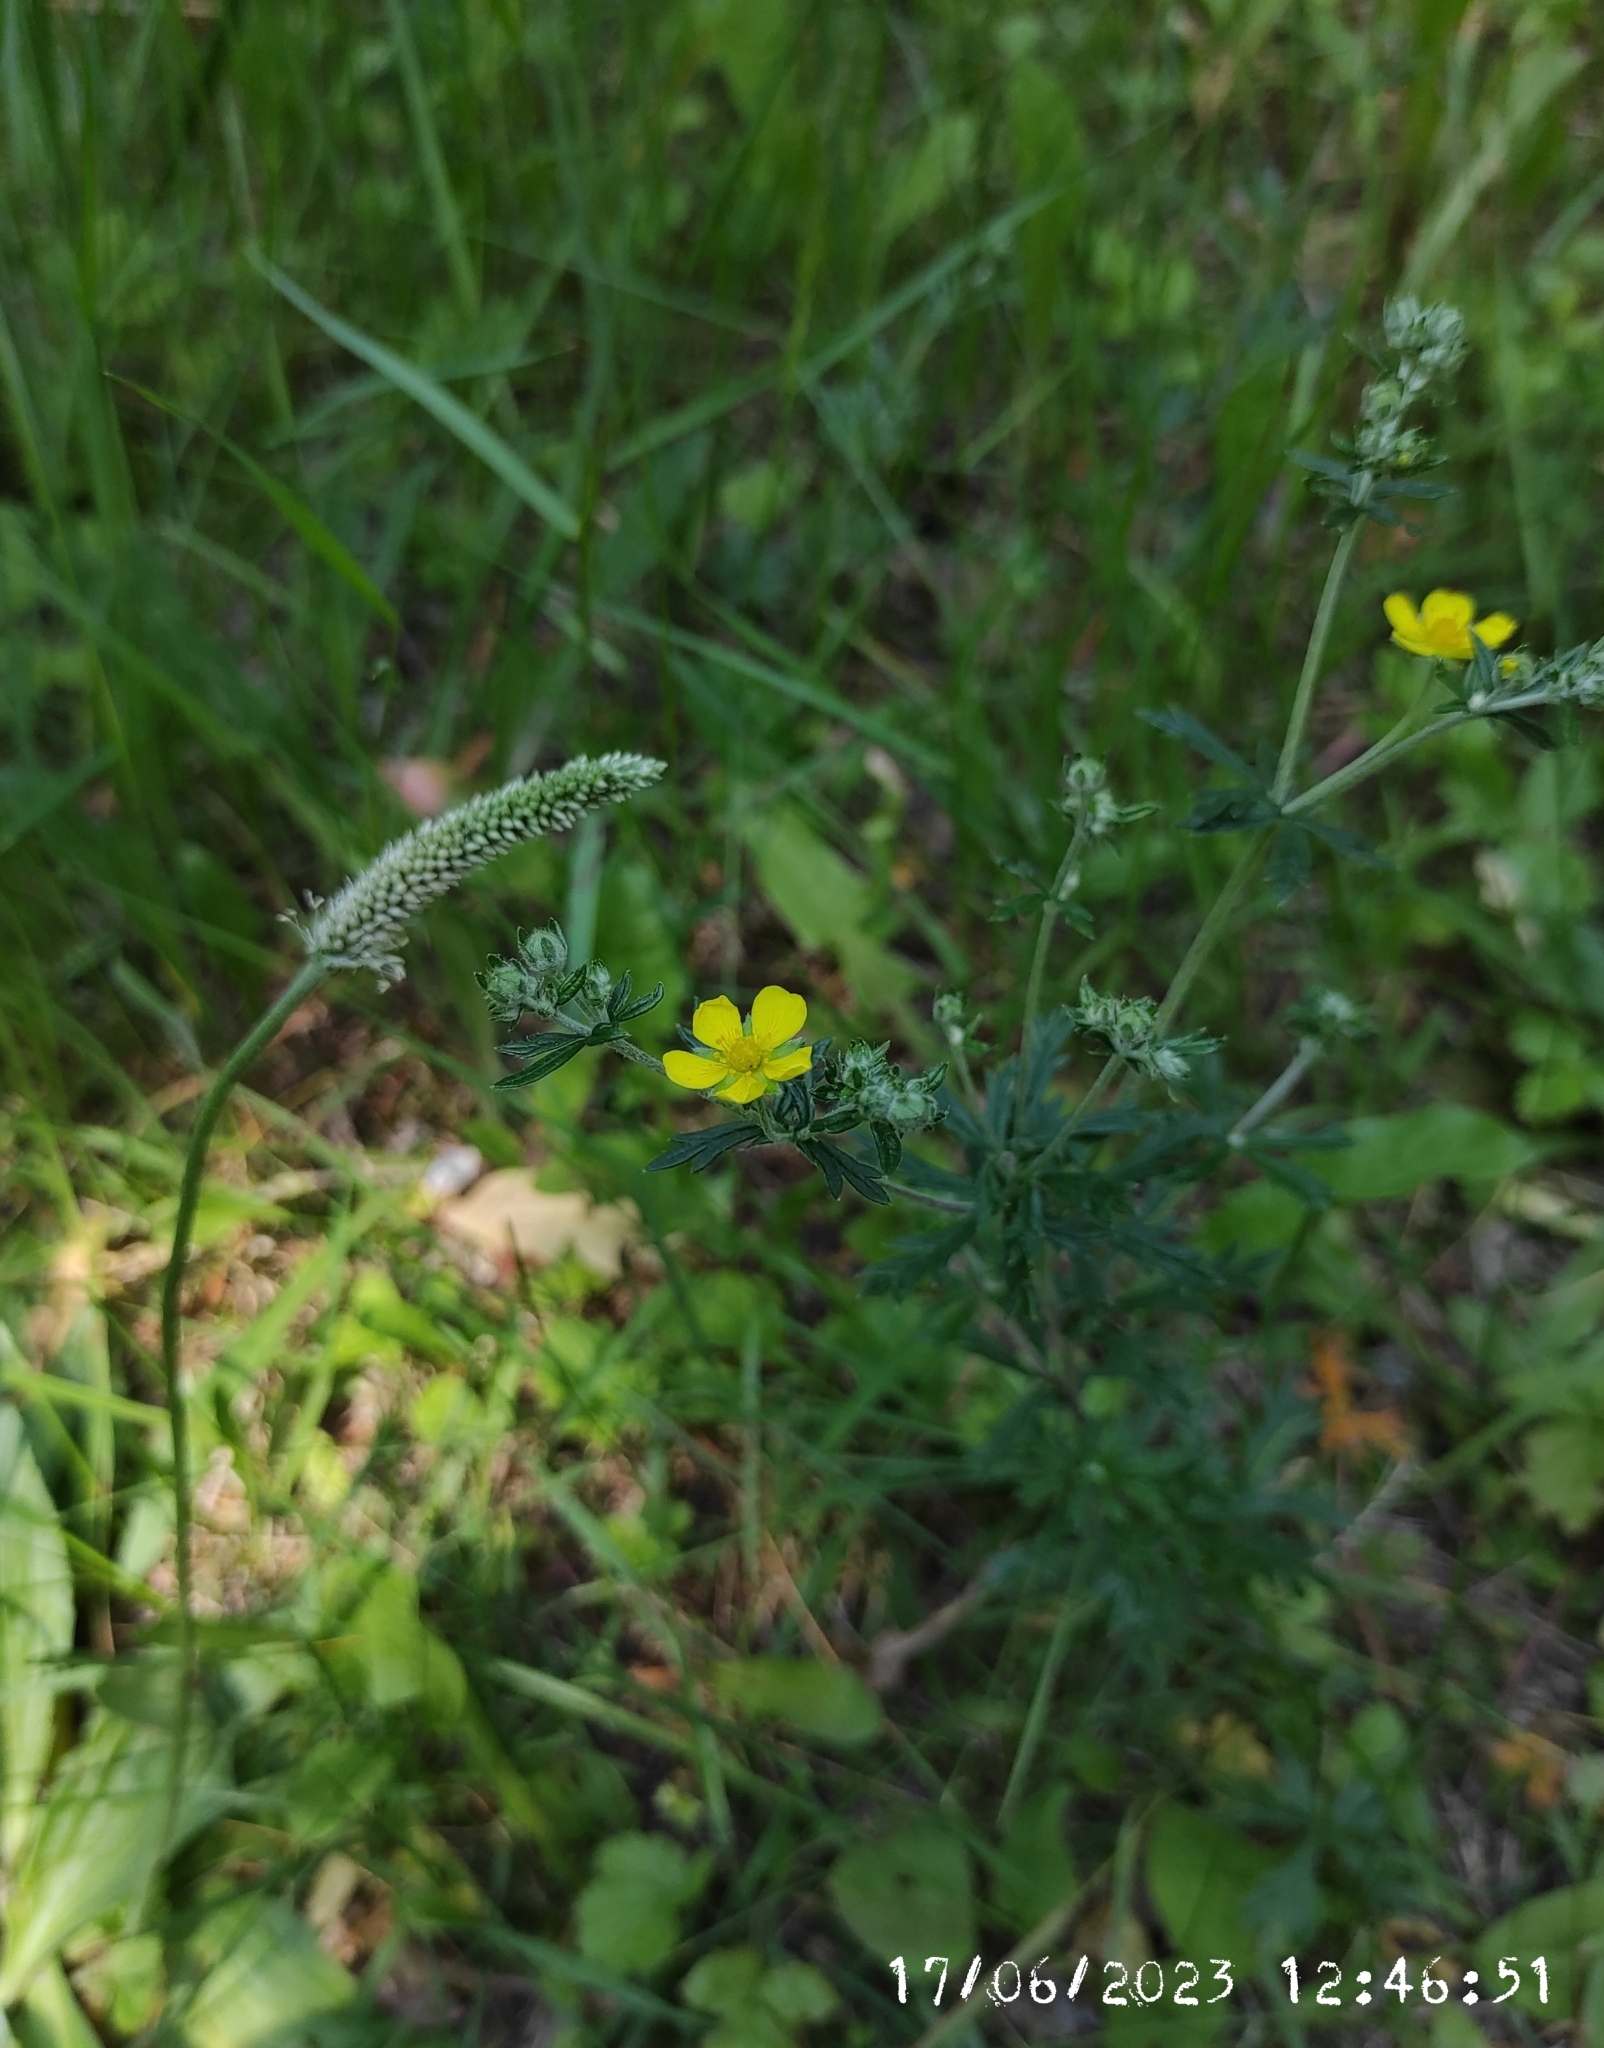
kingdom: Plantae
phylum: Tracheophyta
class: Magnoliopsida
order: Rosales
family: Rosaceae
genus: Potentilla
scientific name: Potentilla argentea
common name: Hoary cinquefoil
